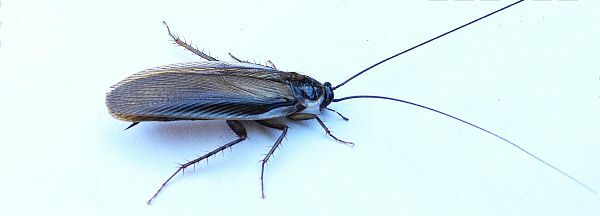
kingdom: Animalia
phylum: Arthropoda
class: Insecta
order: Blattodea
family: Ectobiidae
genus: Parcoblatta
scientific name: Parcoblatta pennsylvanica
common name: Pennsylvanian wood cockroach
